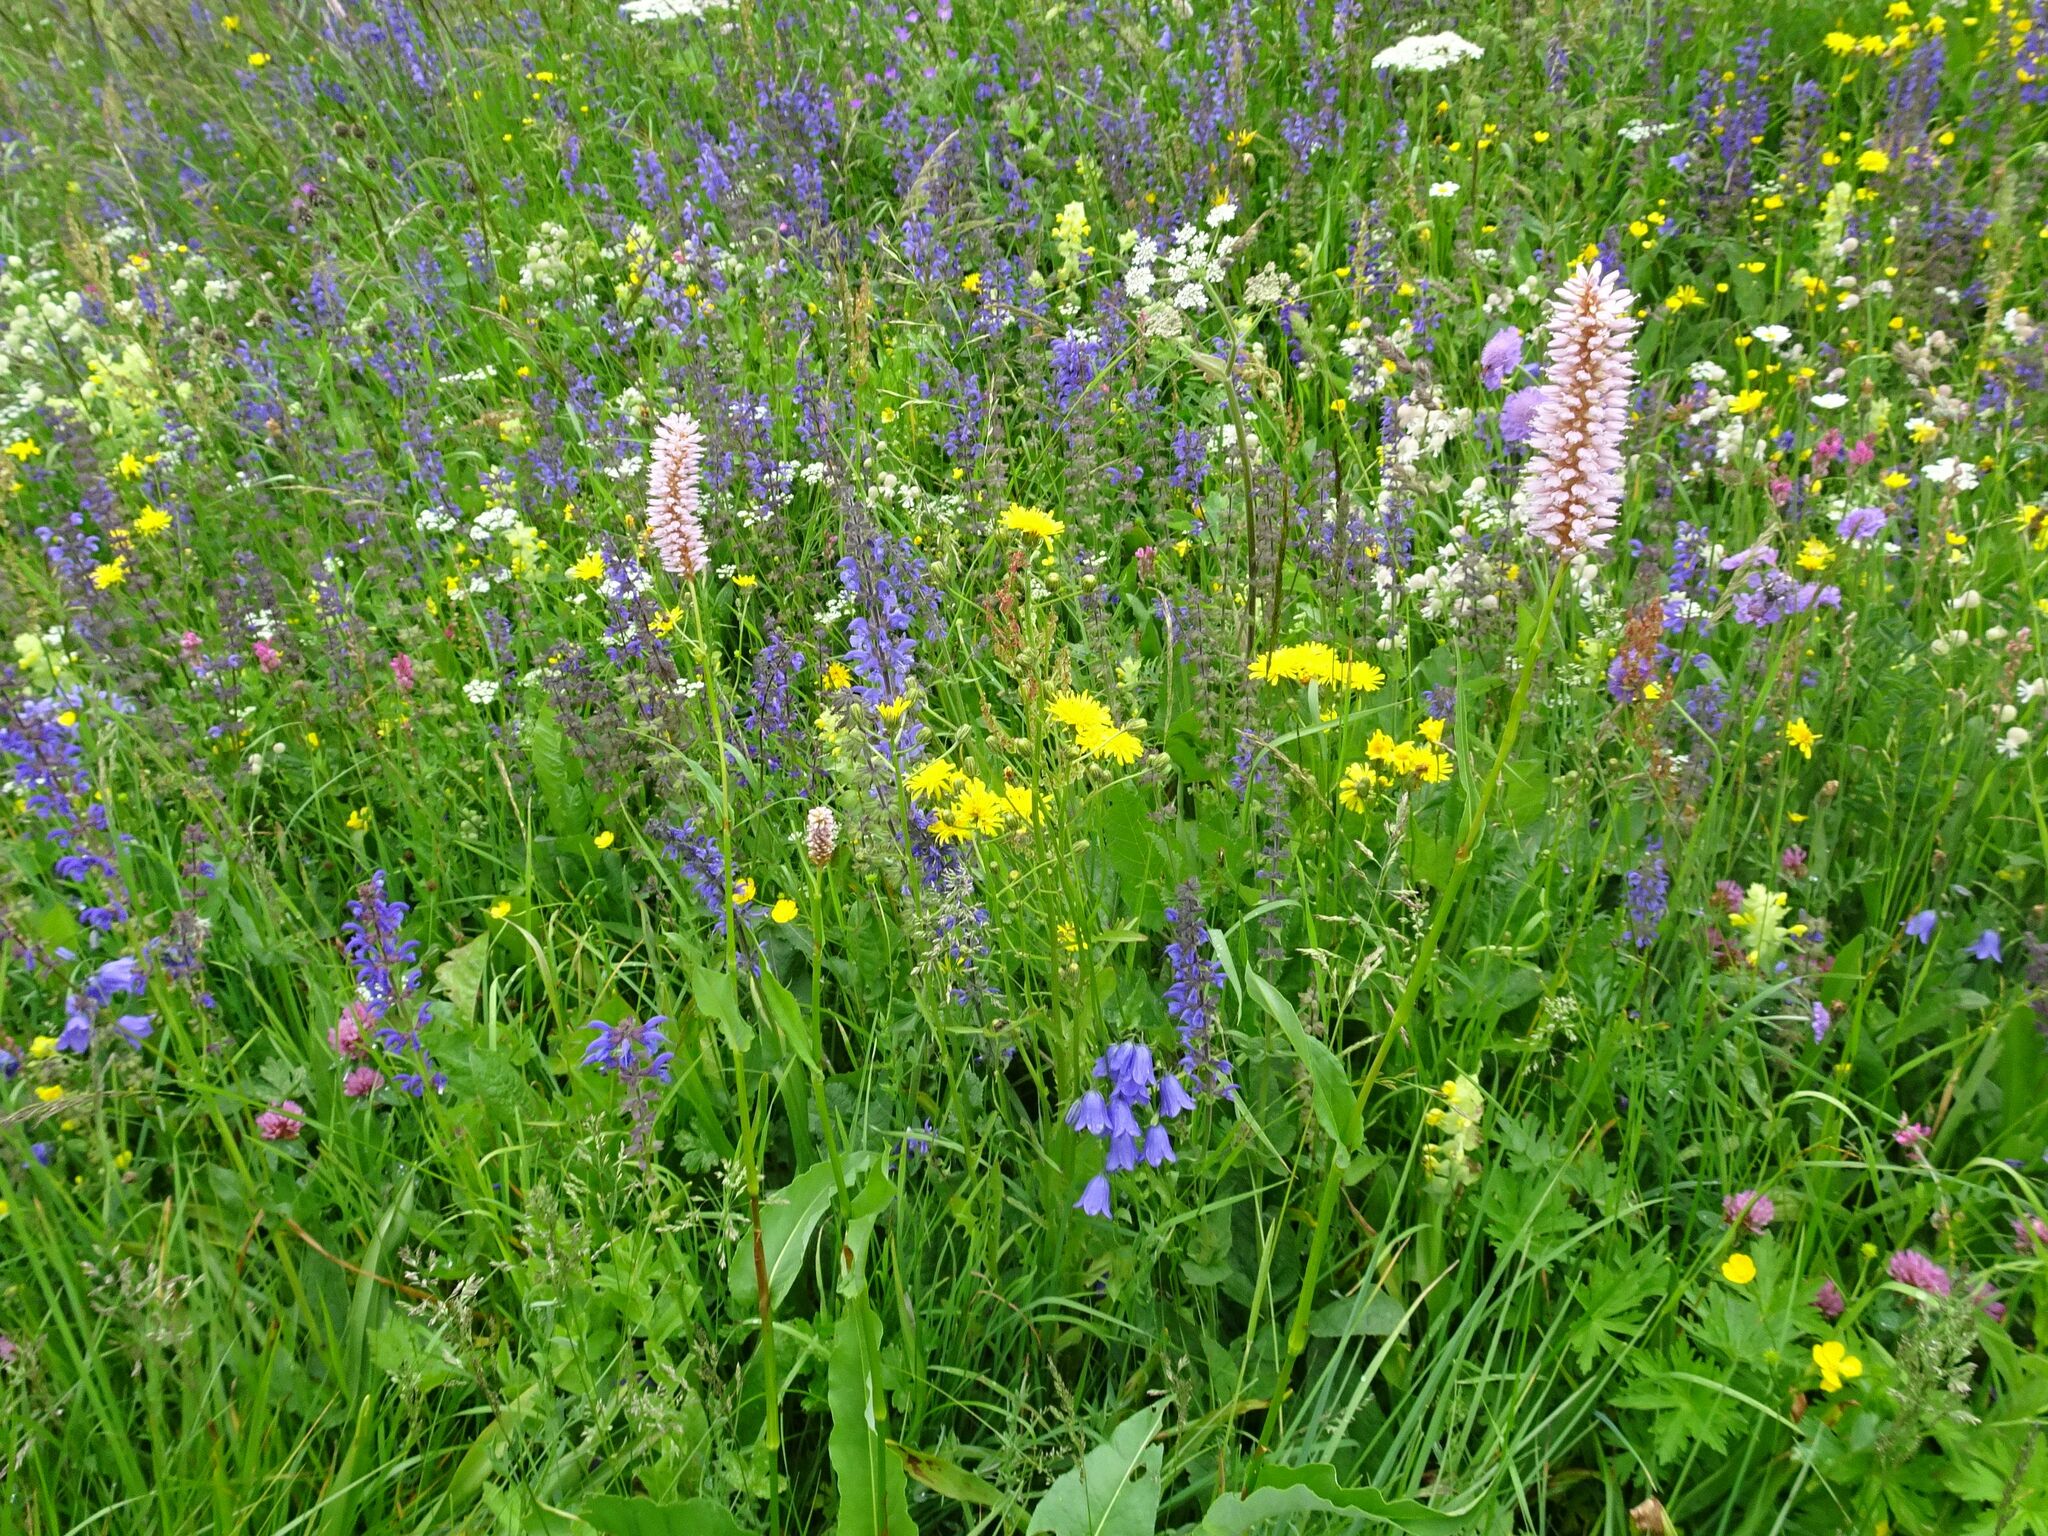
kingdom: Plantae
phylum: Tracheophyta
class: Magnoliopsida
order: Caryophyllales
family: Polygonaceae
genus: Bistorta
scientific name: Bistorta officinalis
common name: Common bistort
